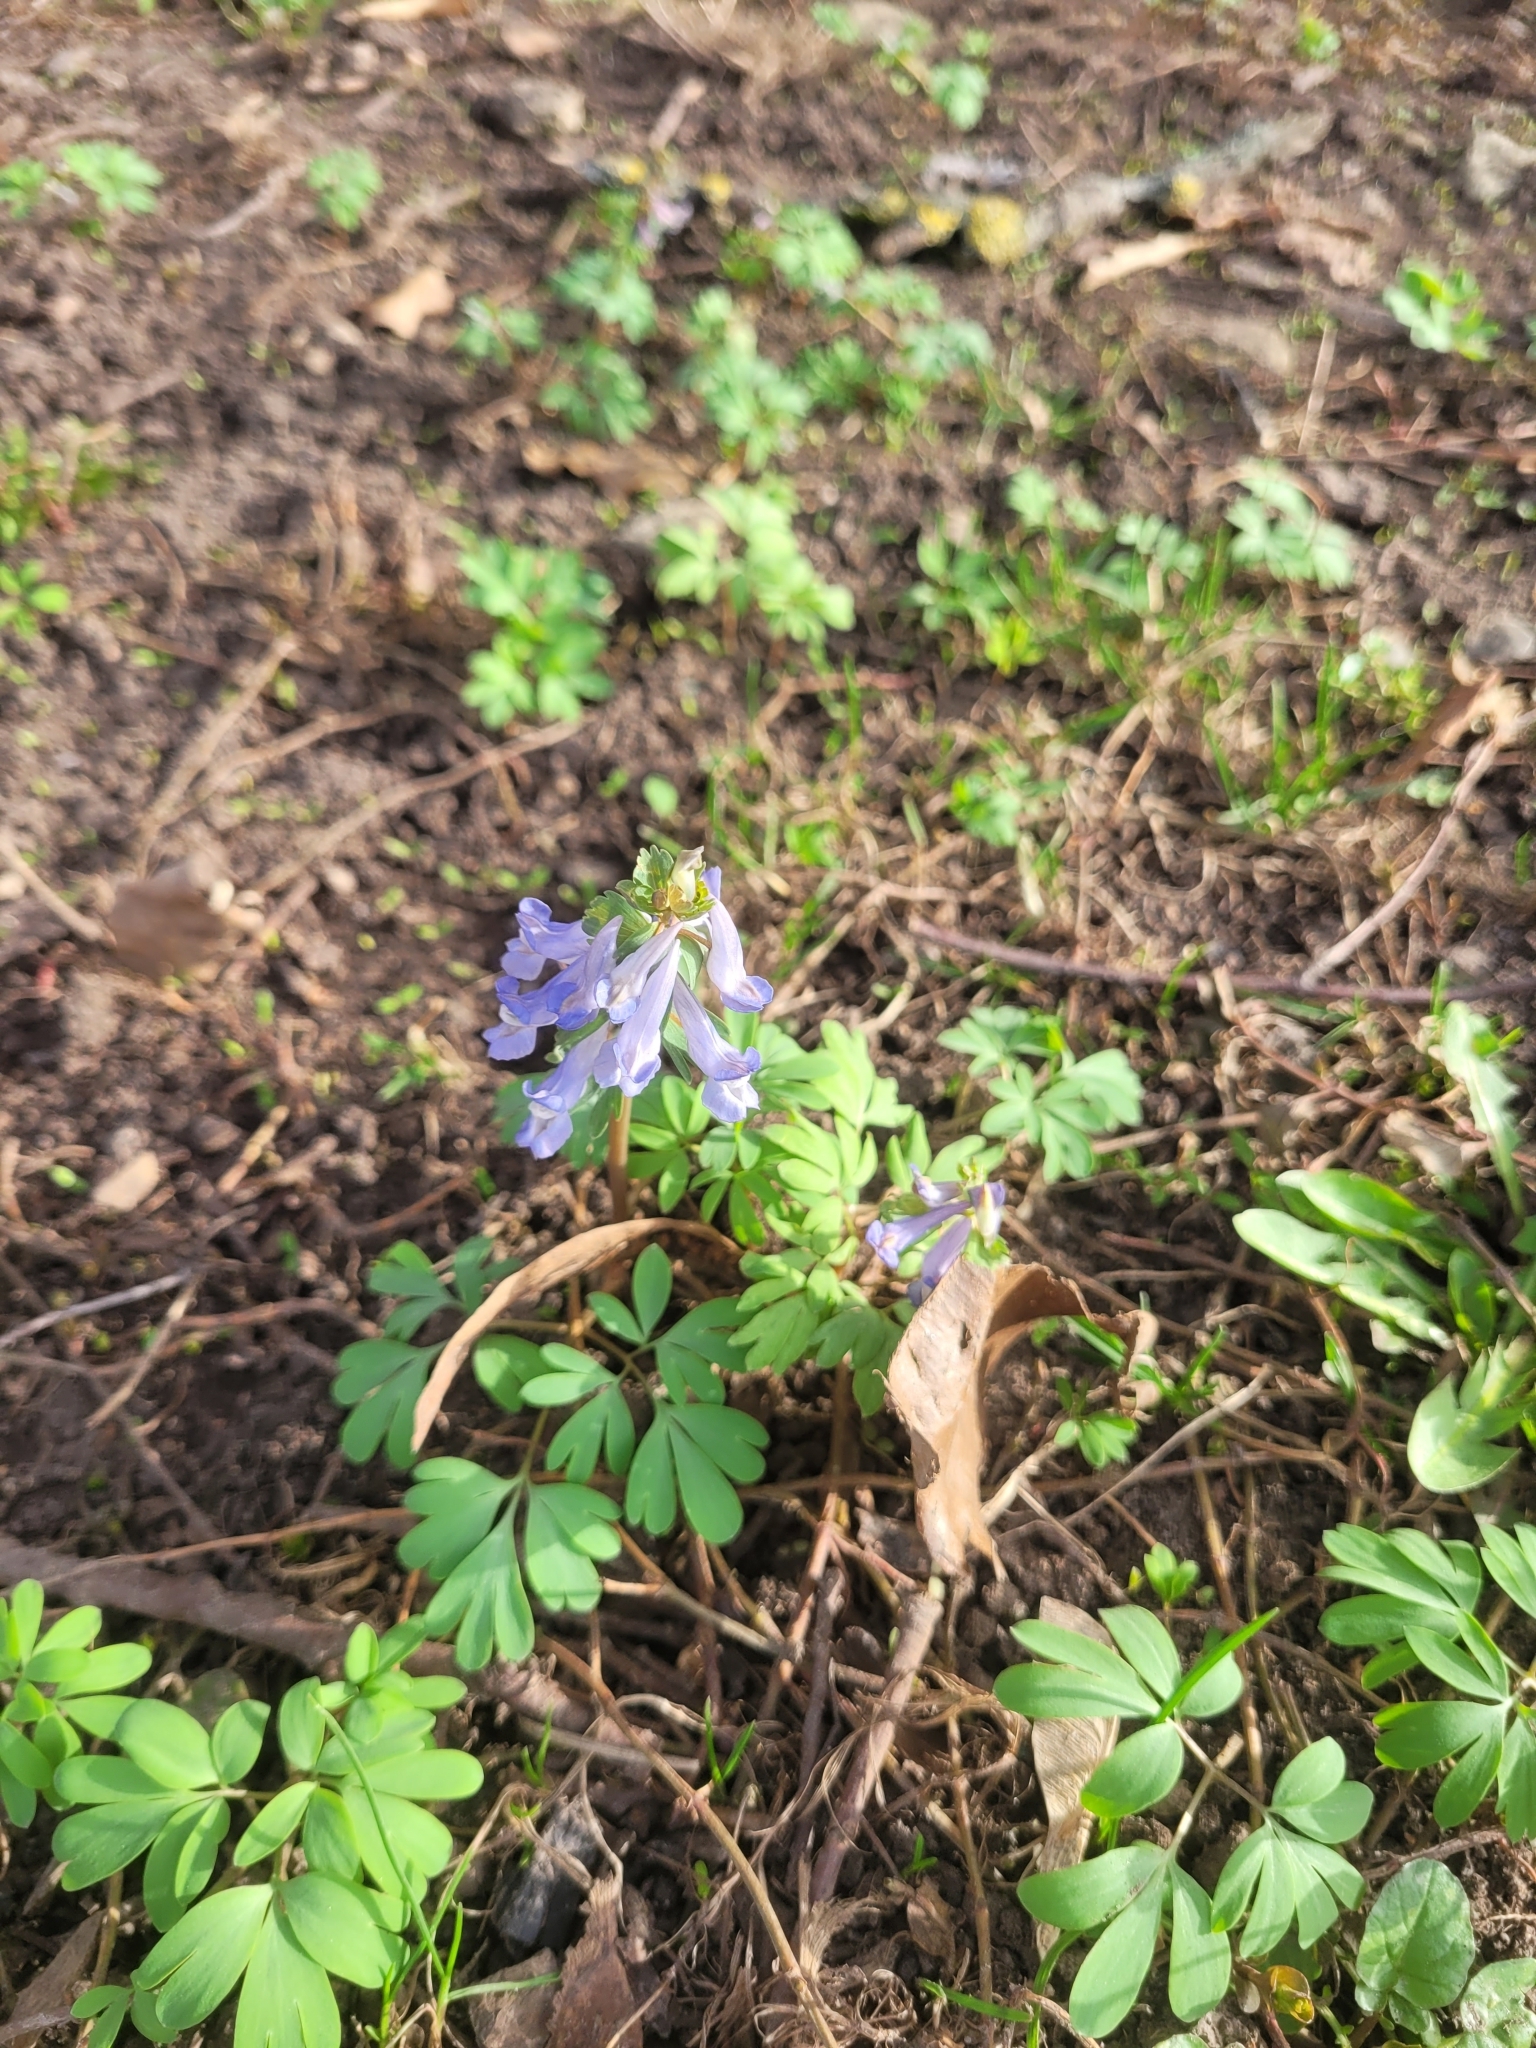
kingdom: Plantae
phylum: Tracheophyta
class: Magnoliopsida
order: Ranunculales
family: Papaveraceae
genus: Corydalis
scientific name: Corydalis solida
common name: Bird-in-a-bush
